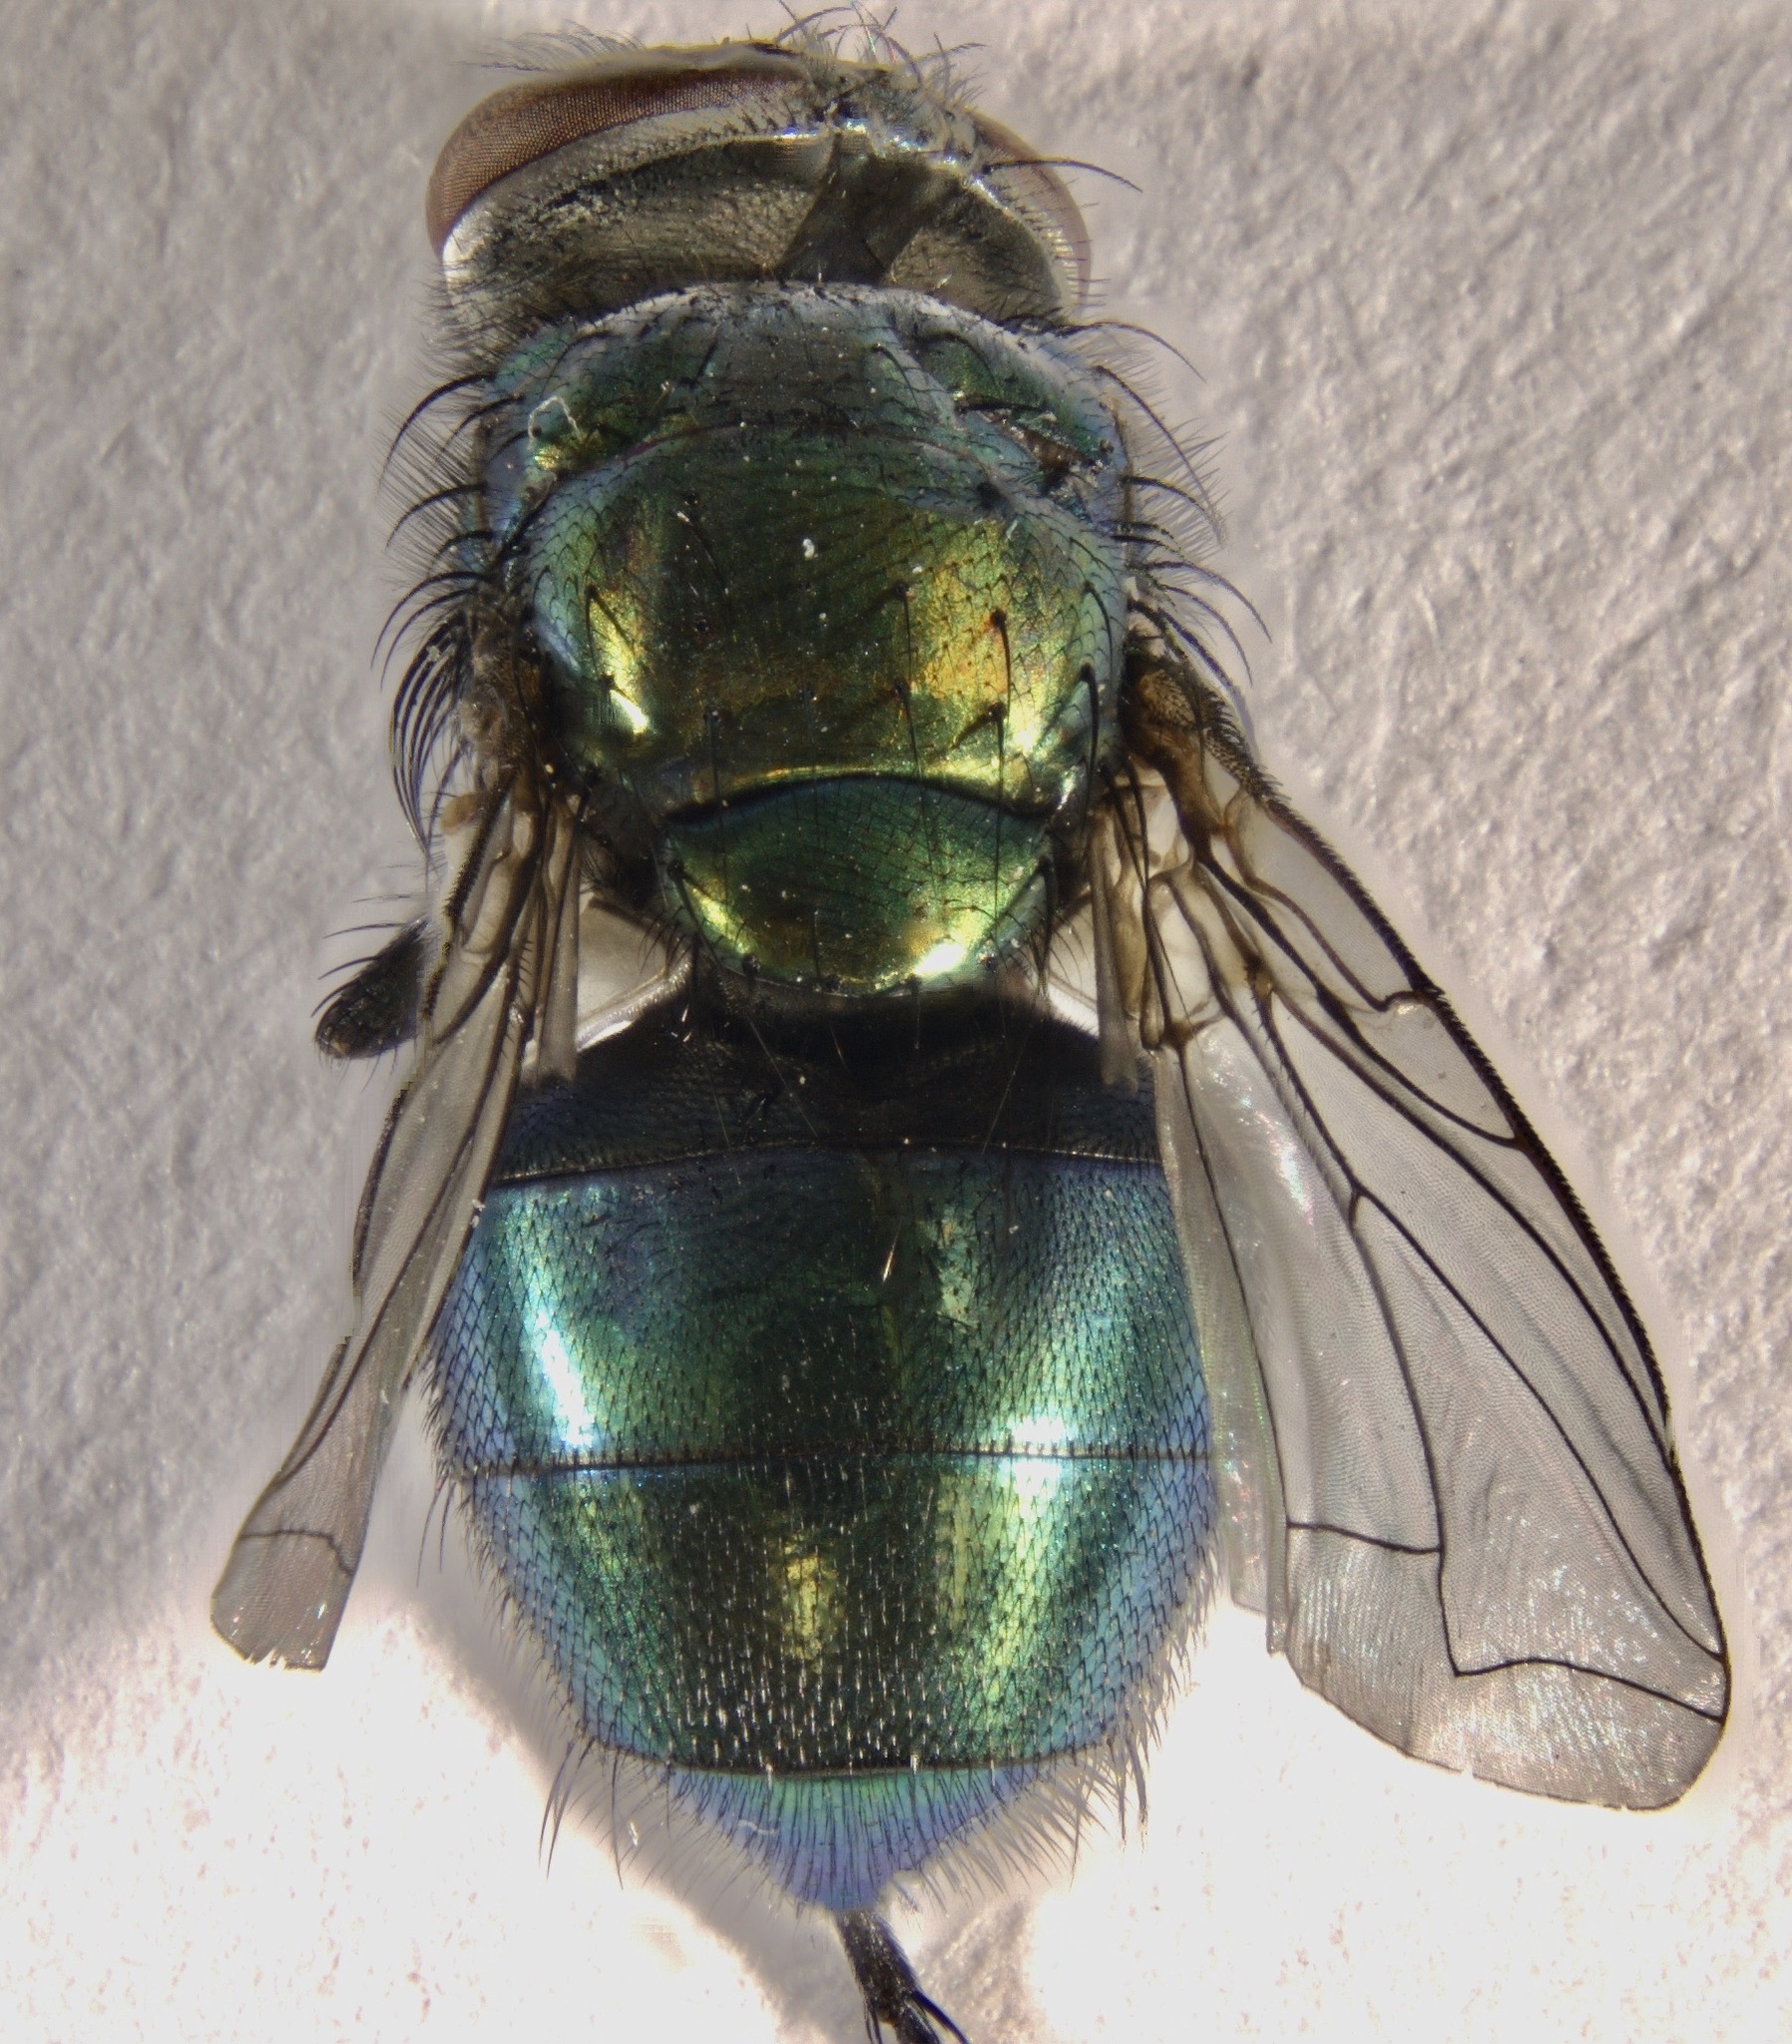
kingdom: Animalia
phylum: Arthropoda
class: Insecta
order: Diptera
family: Calliphoridae
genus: Lucilia
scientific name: Lucilia mexicana
